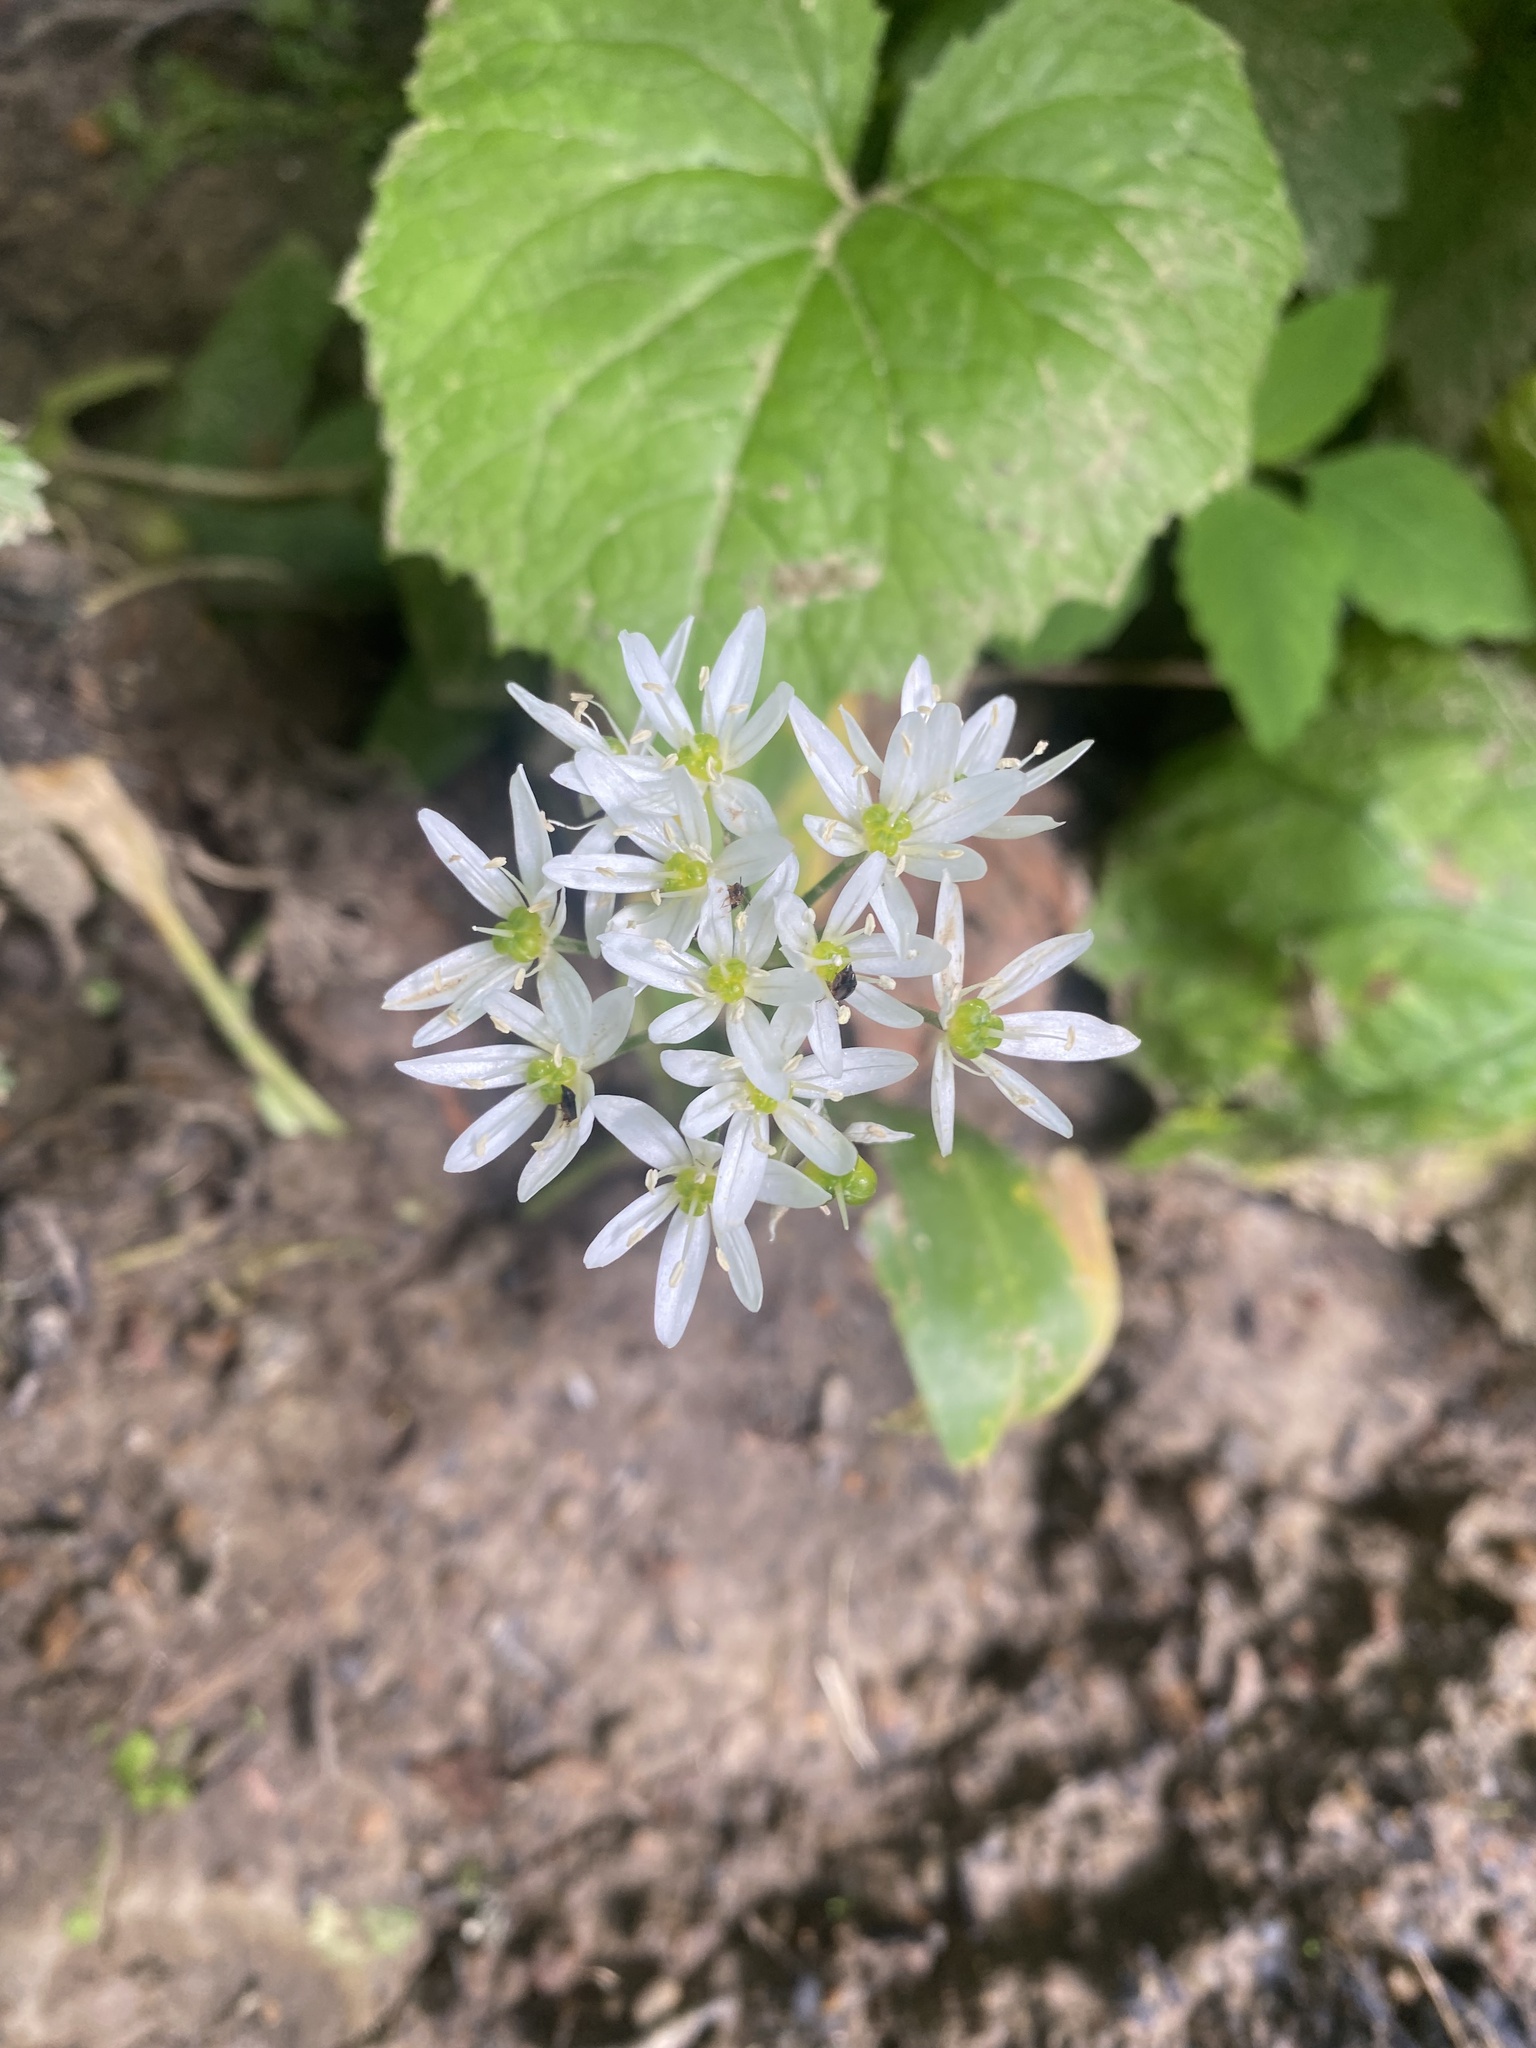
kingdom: Plantae
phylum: Tracheophyta
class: Liliopsida
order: Asparagales
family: Amaryllidaceae
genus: Allium
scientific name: Allium ursinum
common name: Ramsons
